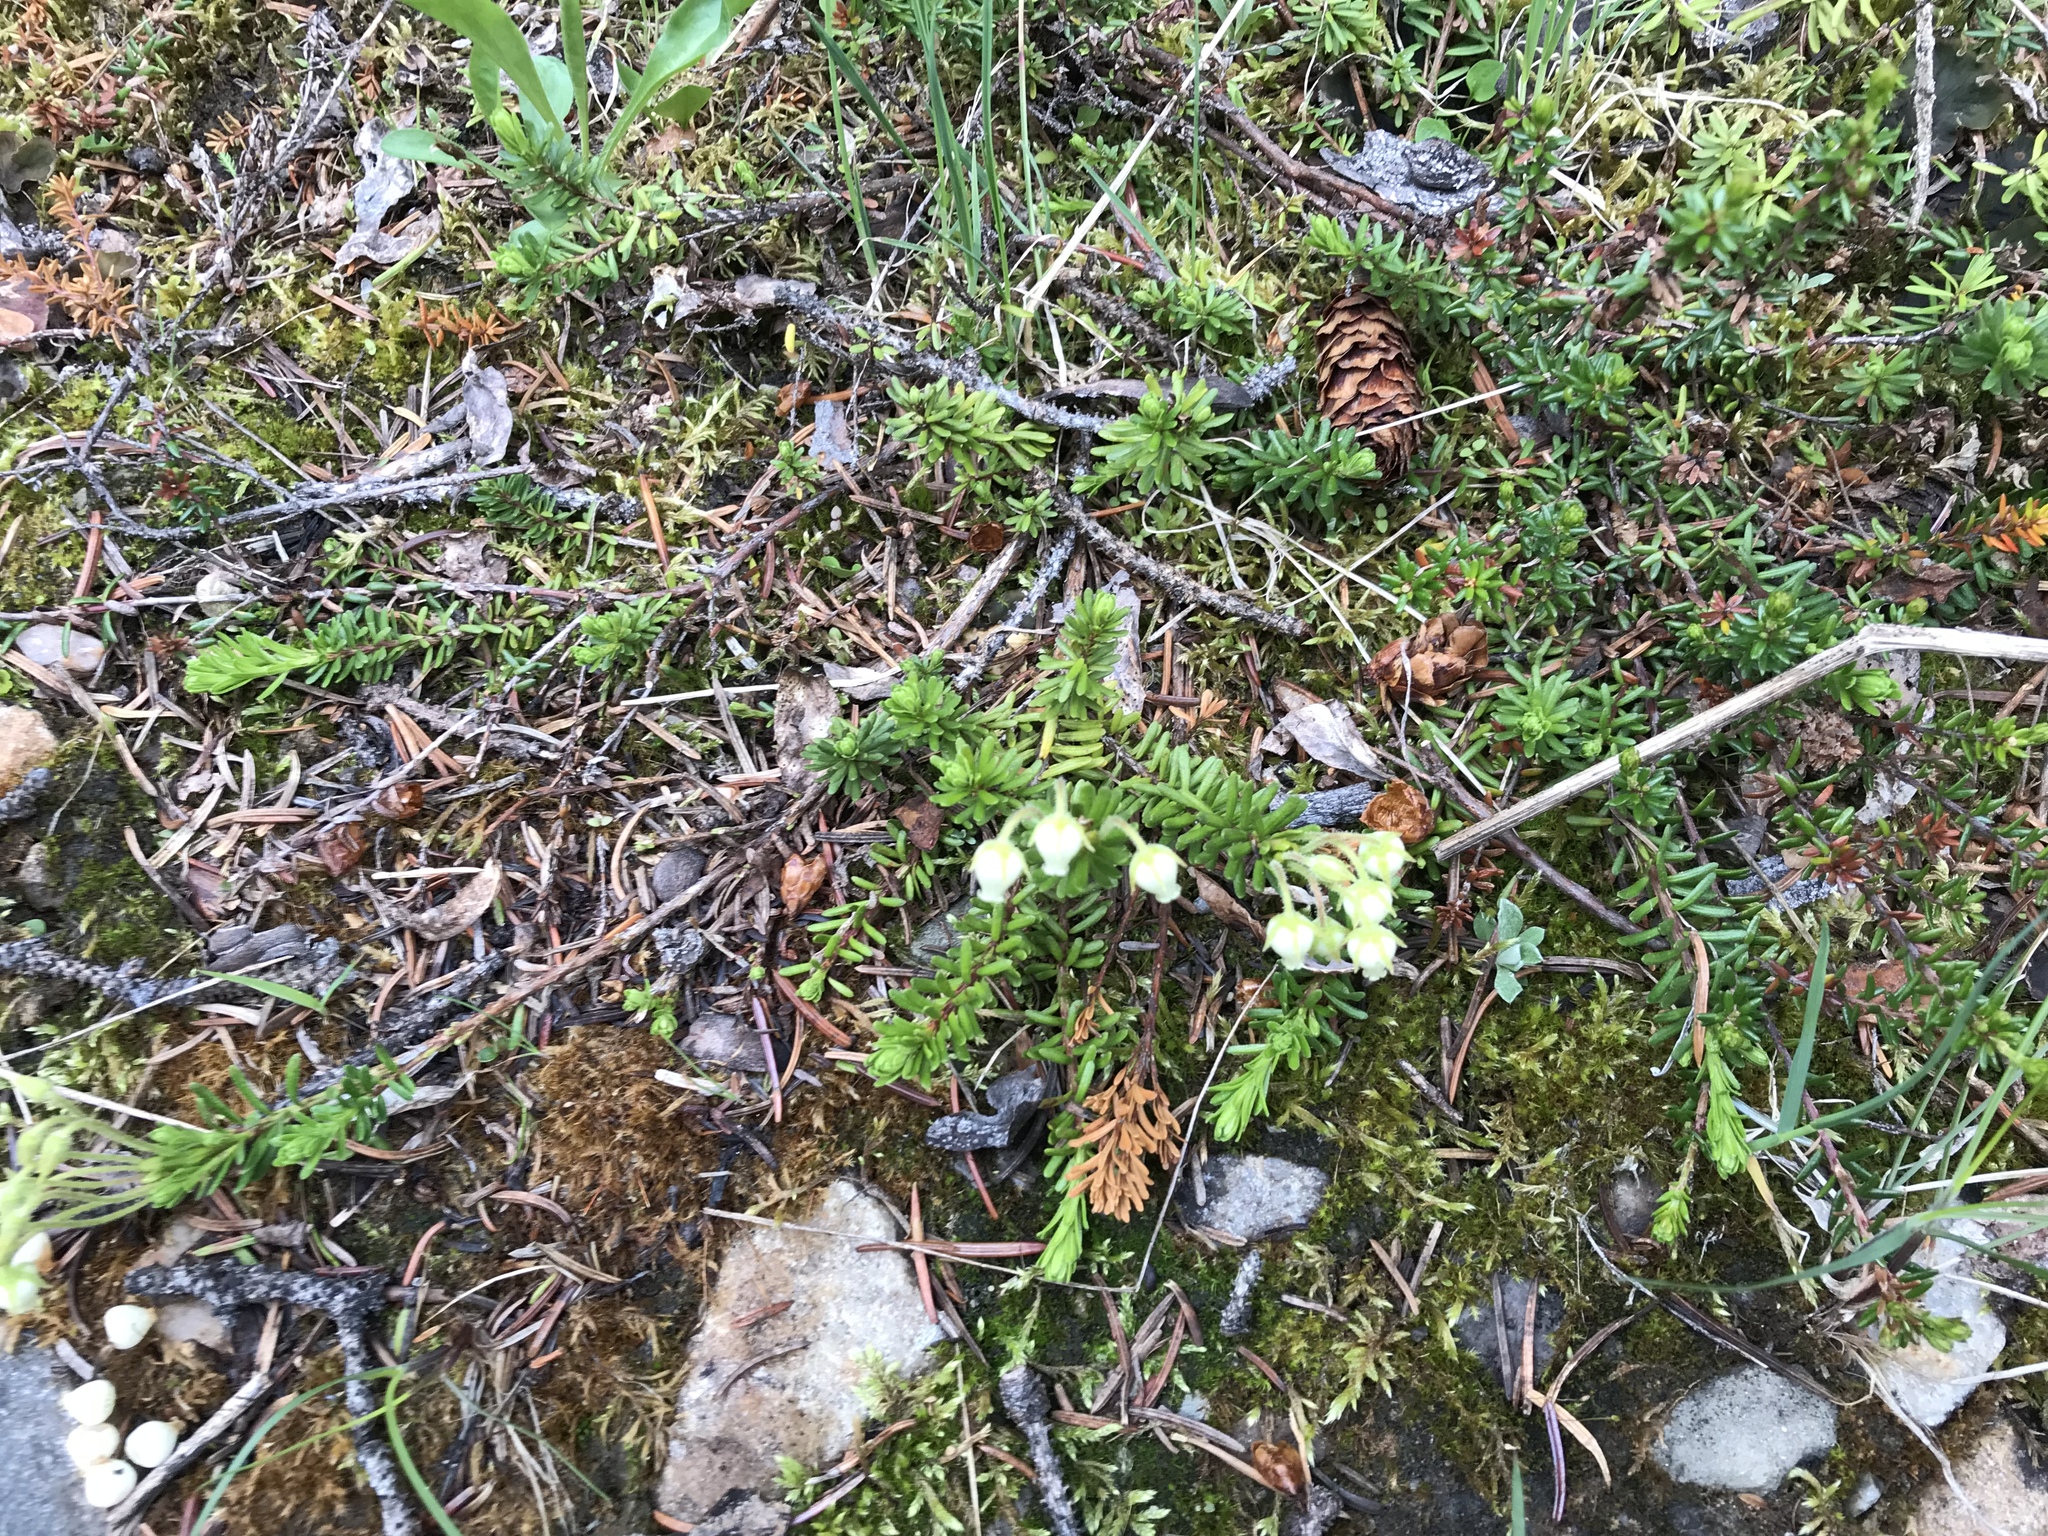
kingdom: Plantae
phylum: Tracheophyta
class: Magnoliopsida
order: Ericales
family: Ericaceae
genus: Phyllodoce
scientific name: Phyllodoce glanduliflora
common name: Cream mountain heather
